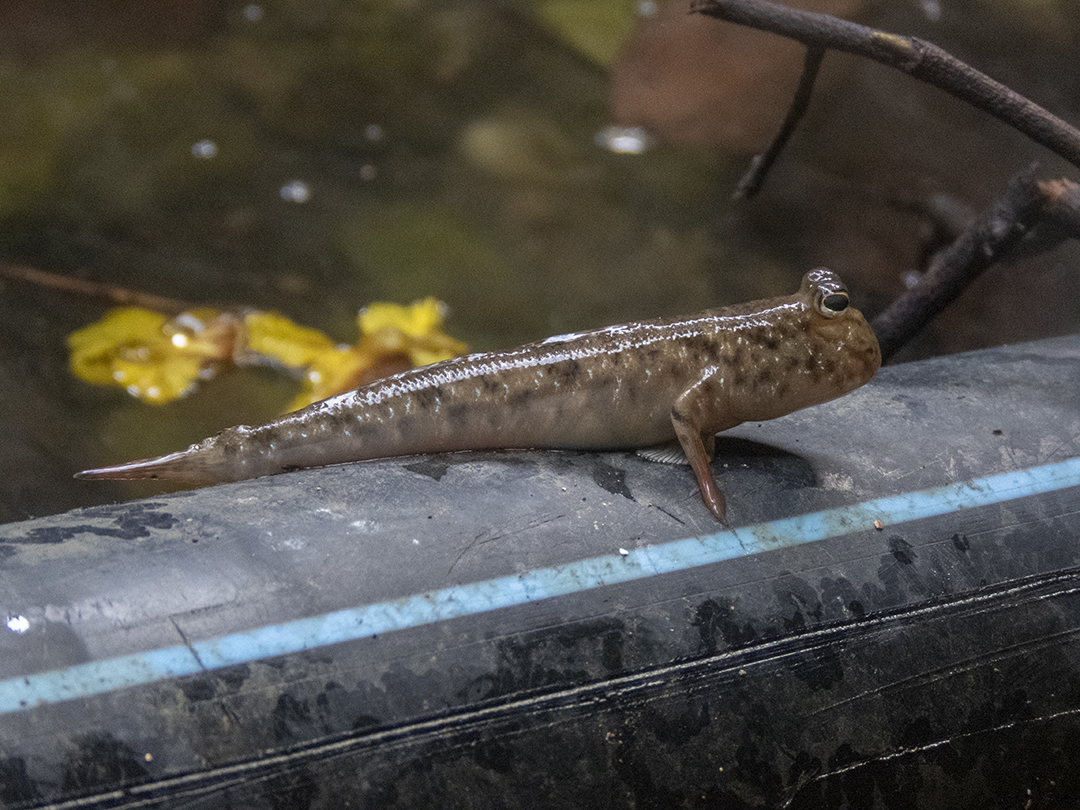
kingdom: Animalia
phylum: Chordata
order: Perciformes
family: Gobiidae
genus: Periophthalmus
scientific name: Periophthalmus variabilis
